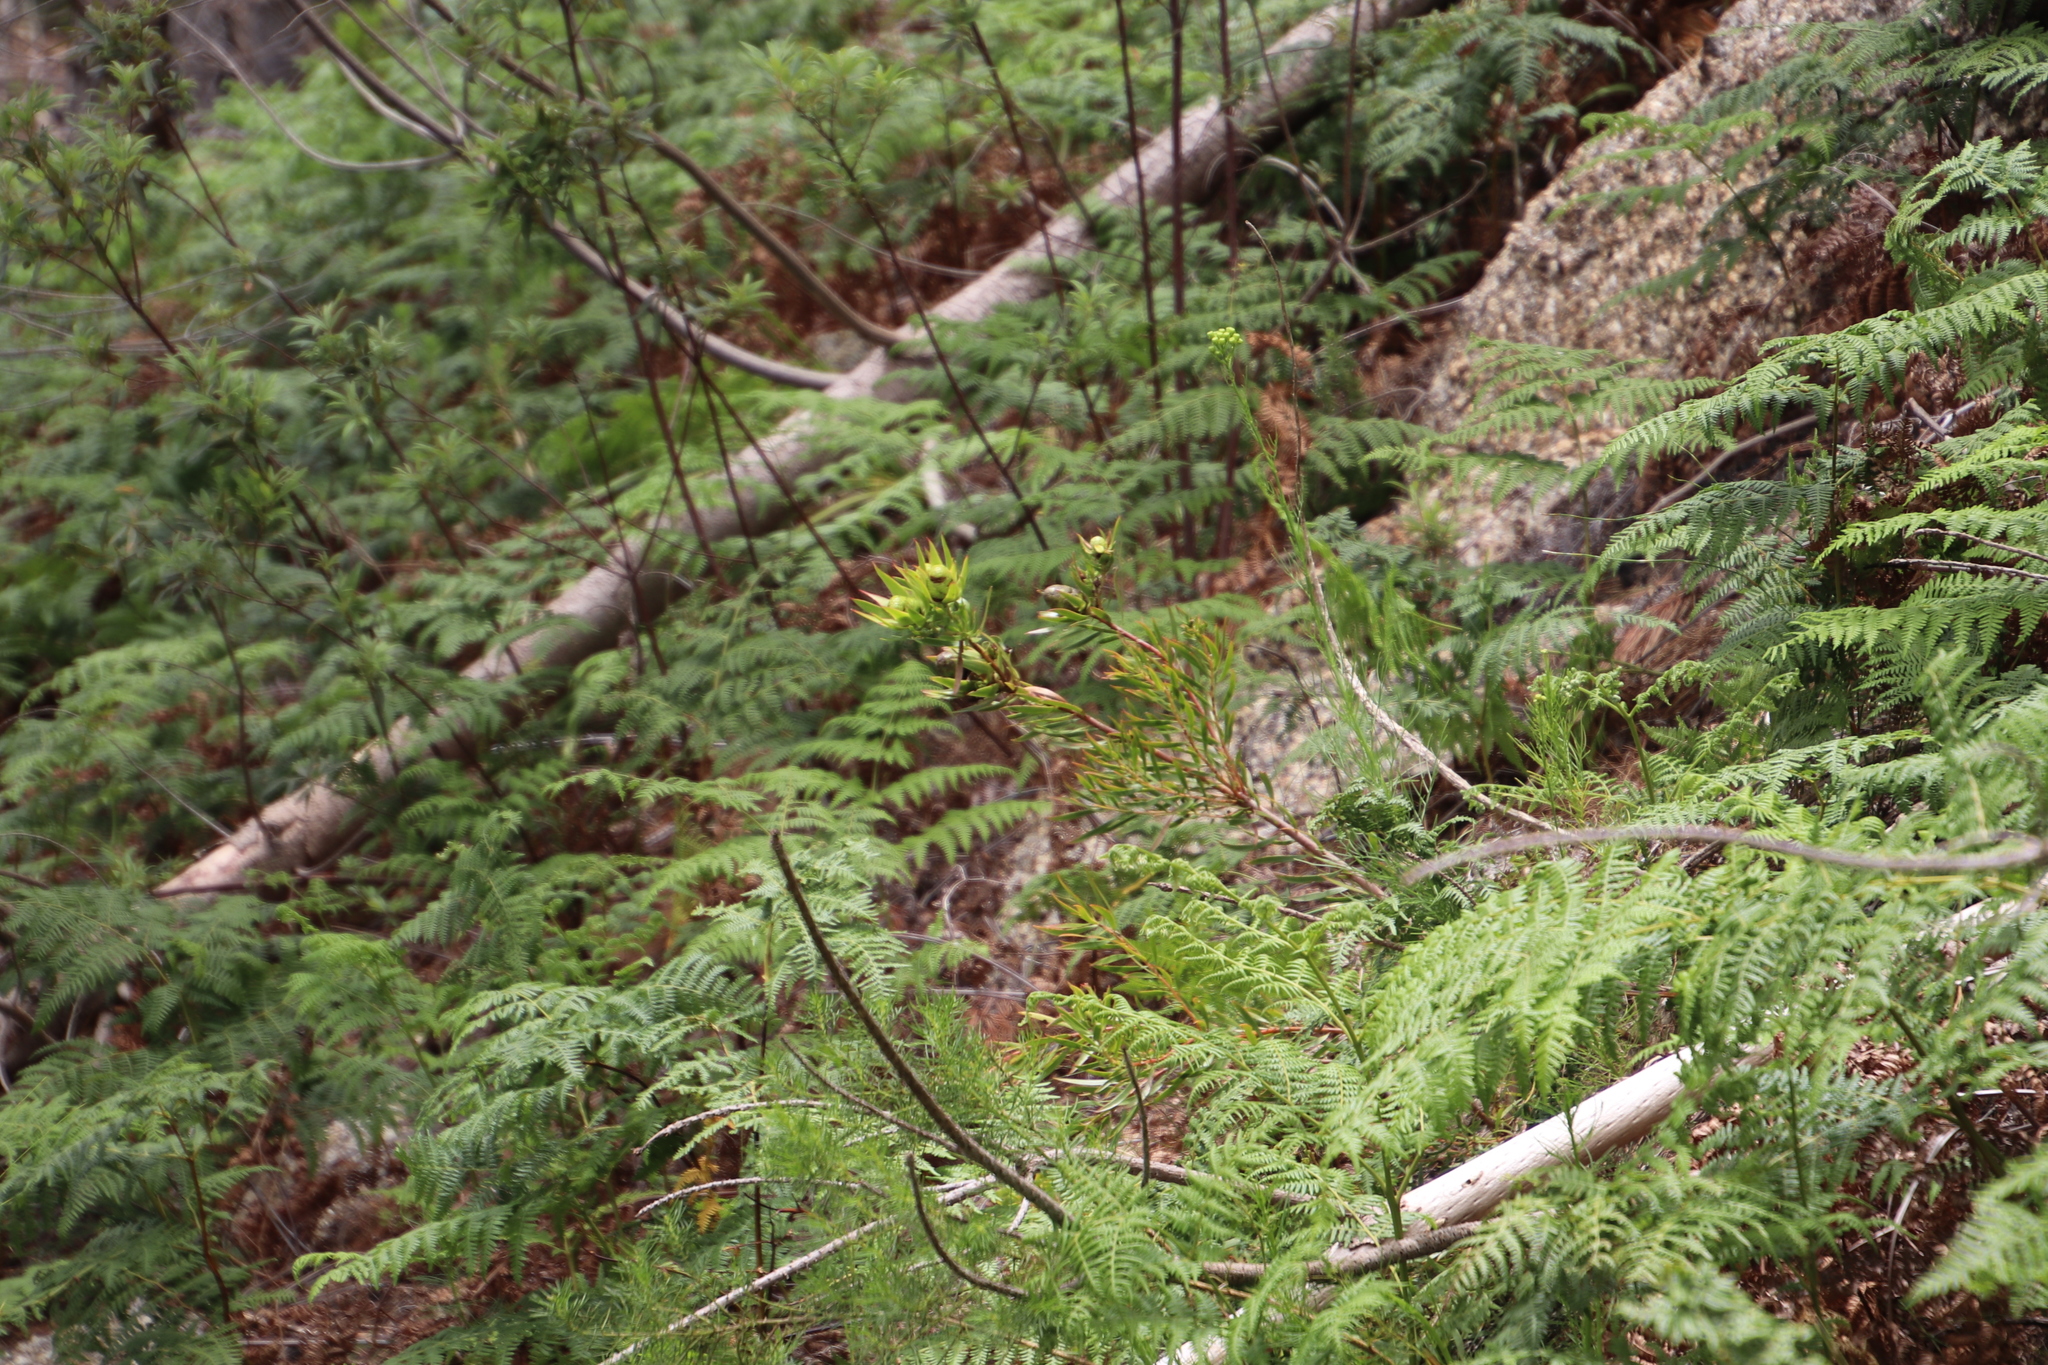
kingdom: Plantae
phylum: Tracheophyta
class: Magnoliopsida
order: Proteales
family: Proteaceae
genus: Leucadendron
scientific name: Leucadendron spissifolium
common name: Spear-leaf conebush
